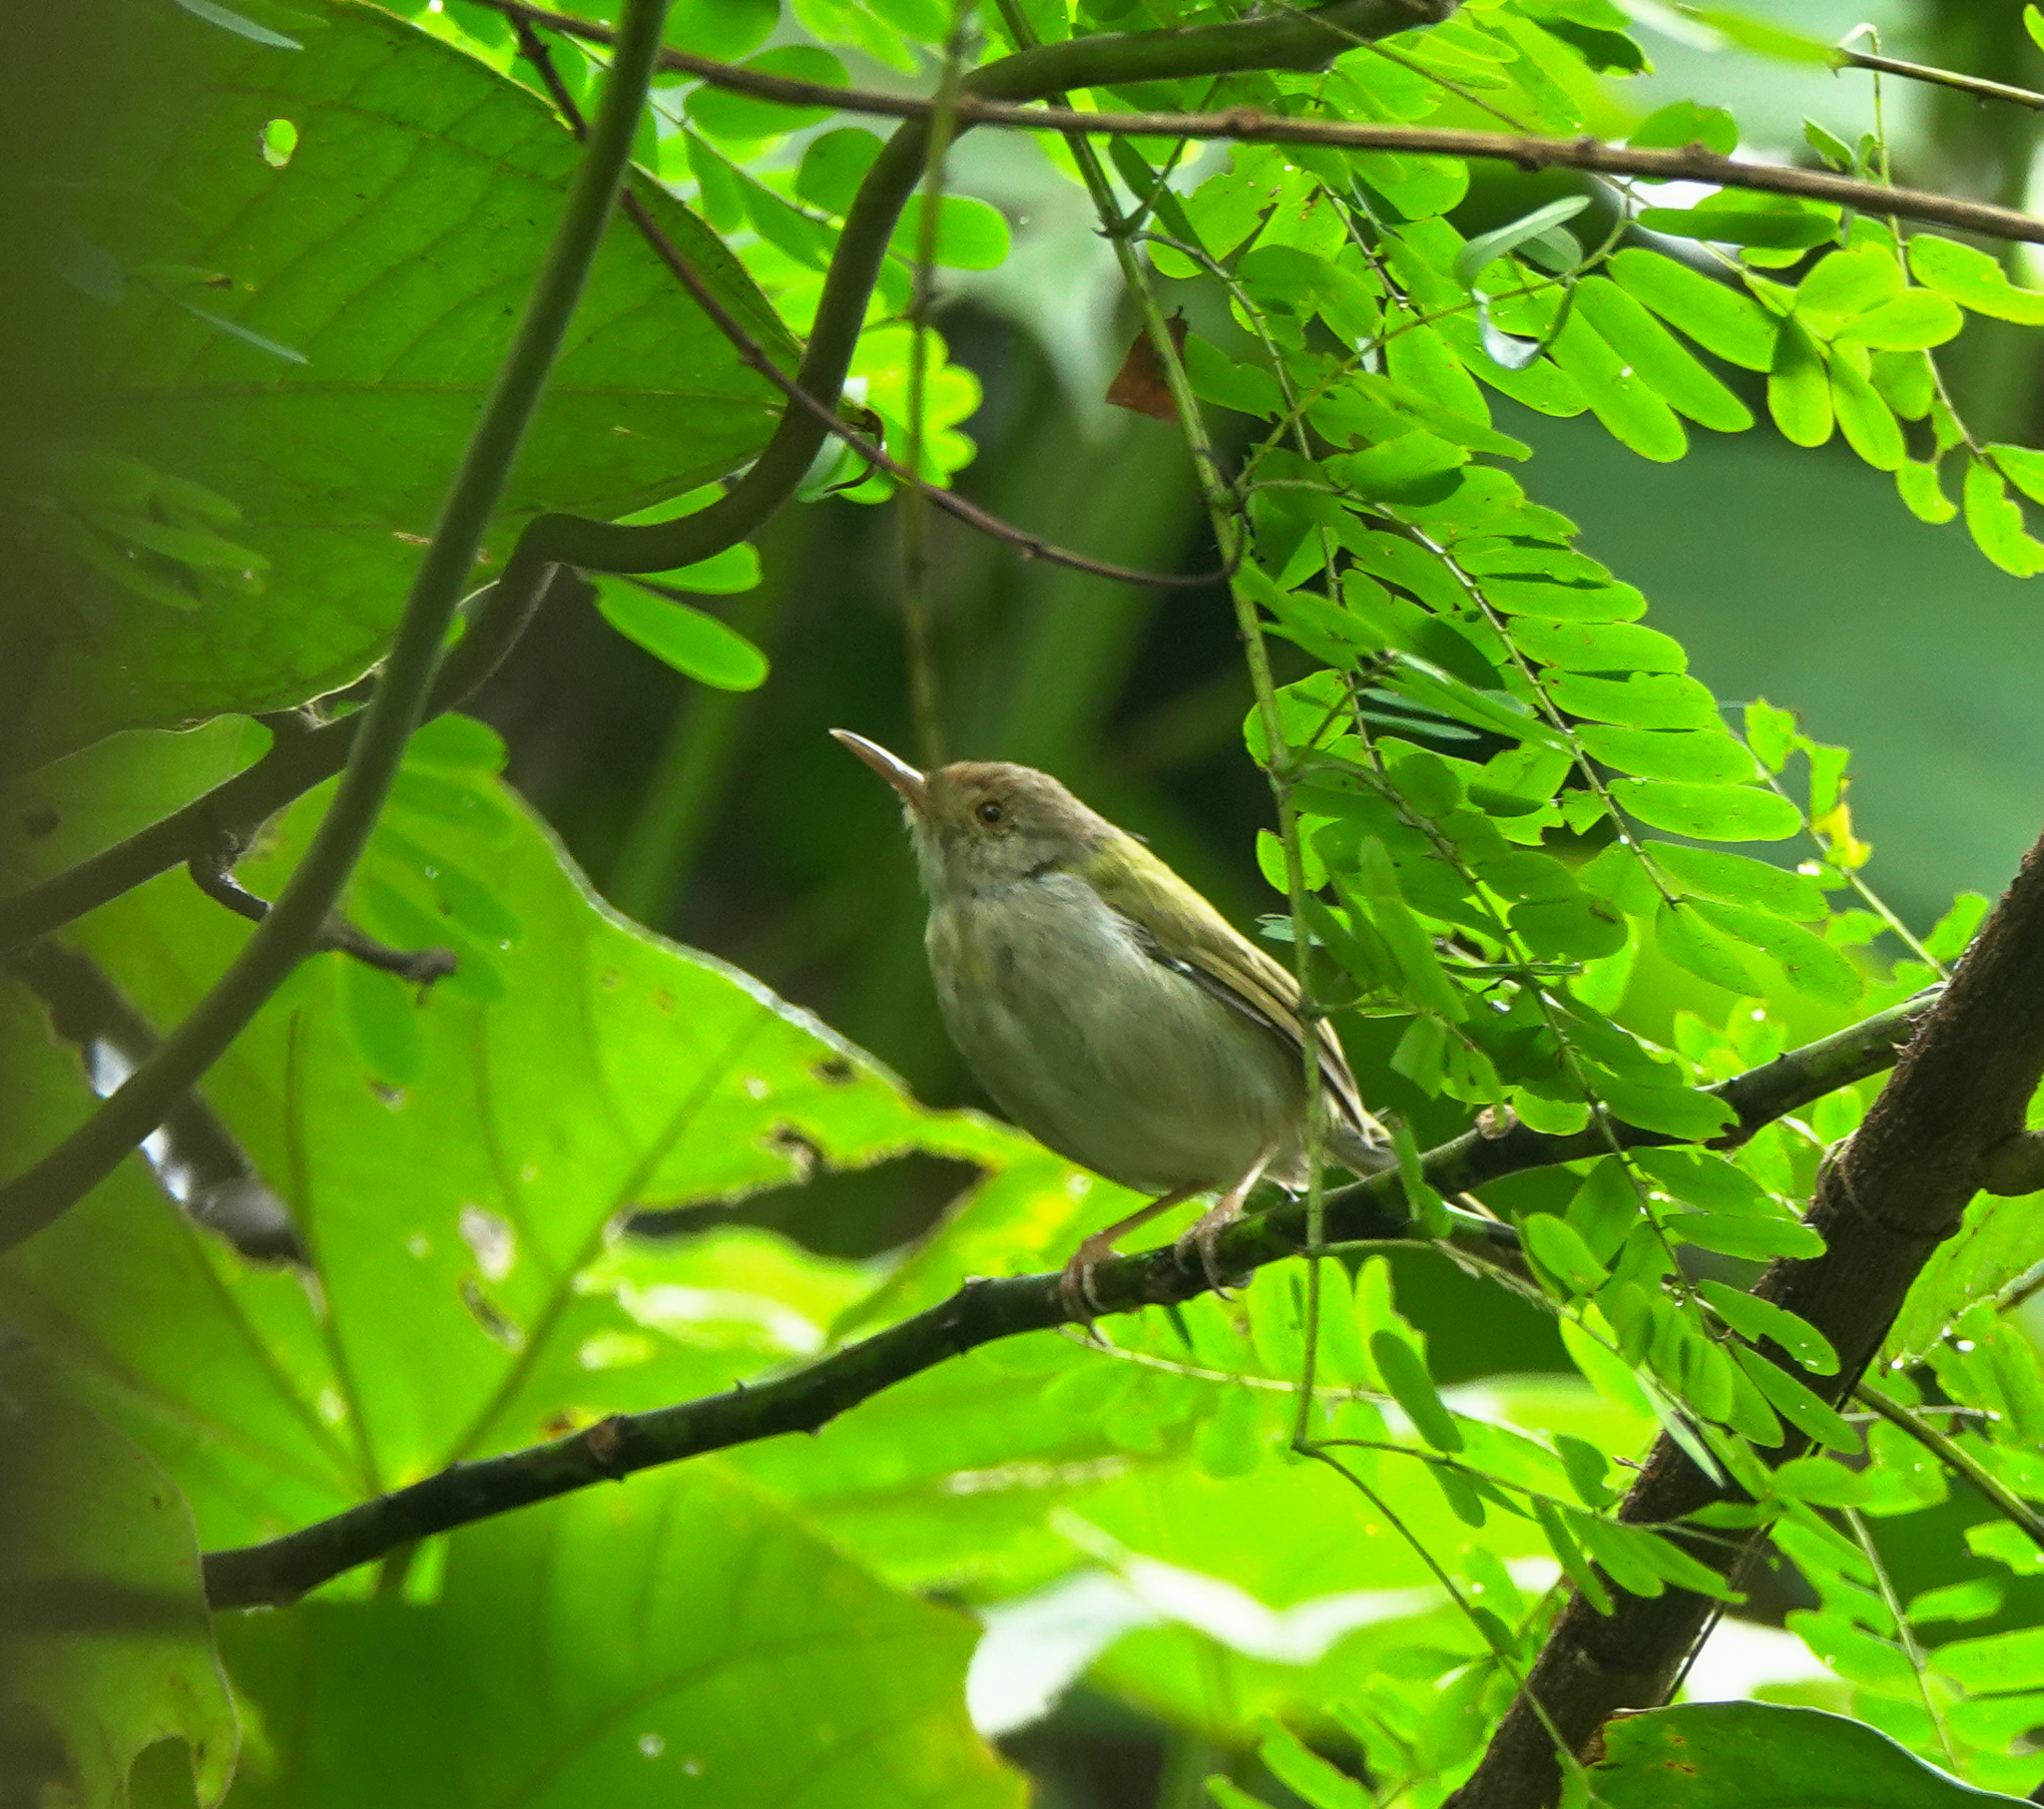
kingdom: Animalia
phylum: Chordata
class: Aves
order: Passeriformes
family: Cisticolidae
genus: Orthotomus
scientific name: Orthotomus sutorius
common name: Common tailorbird
